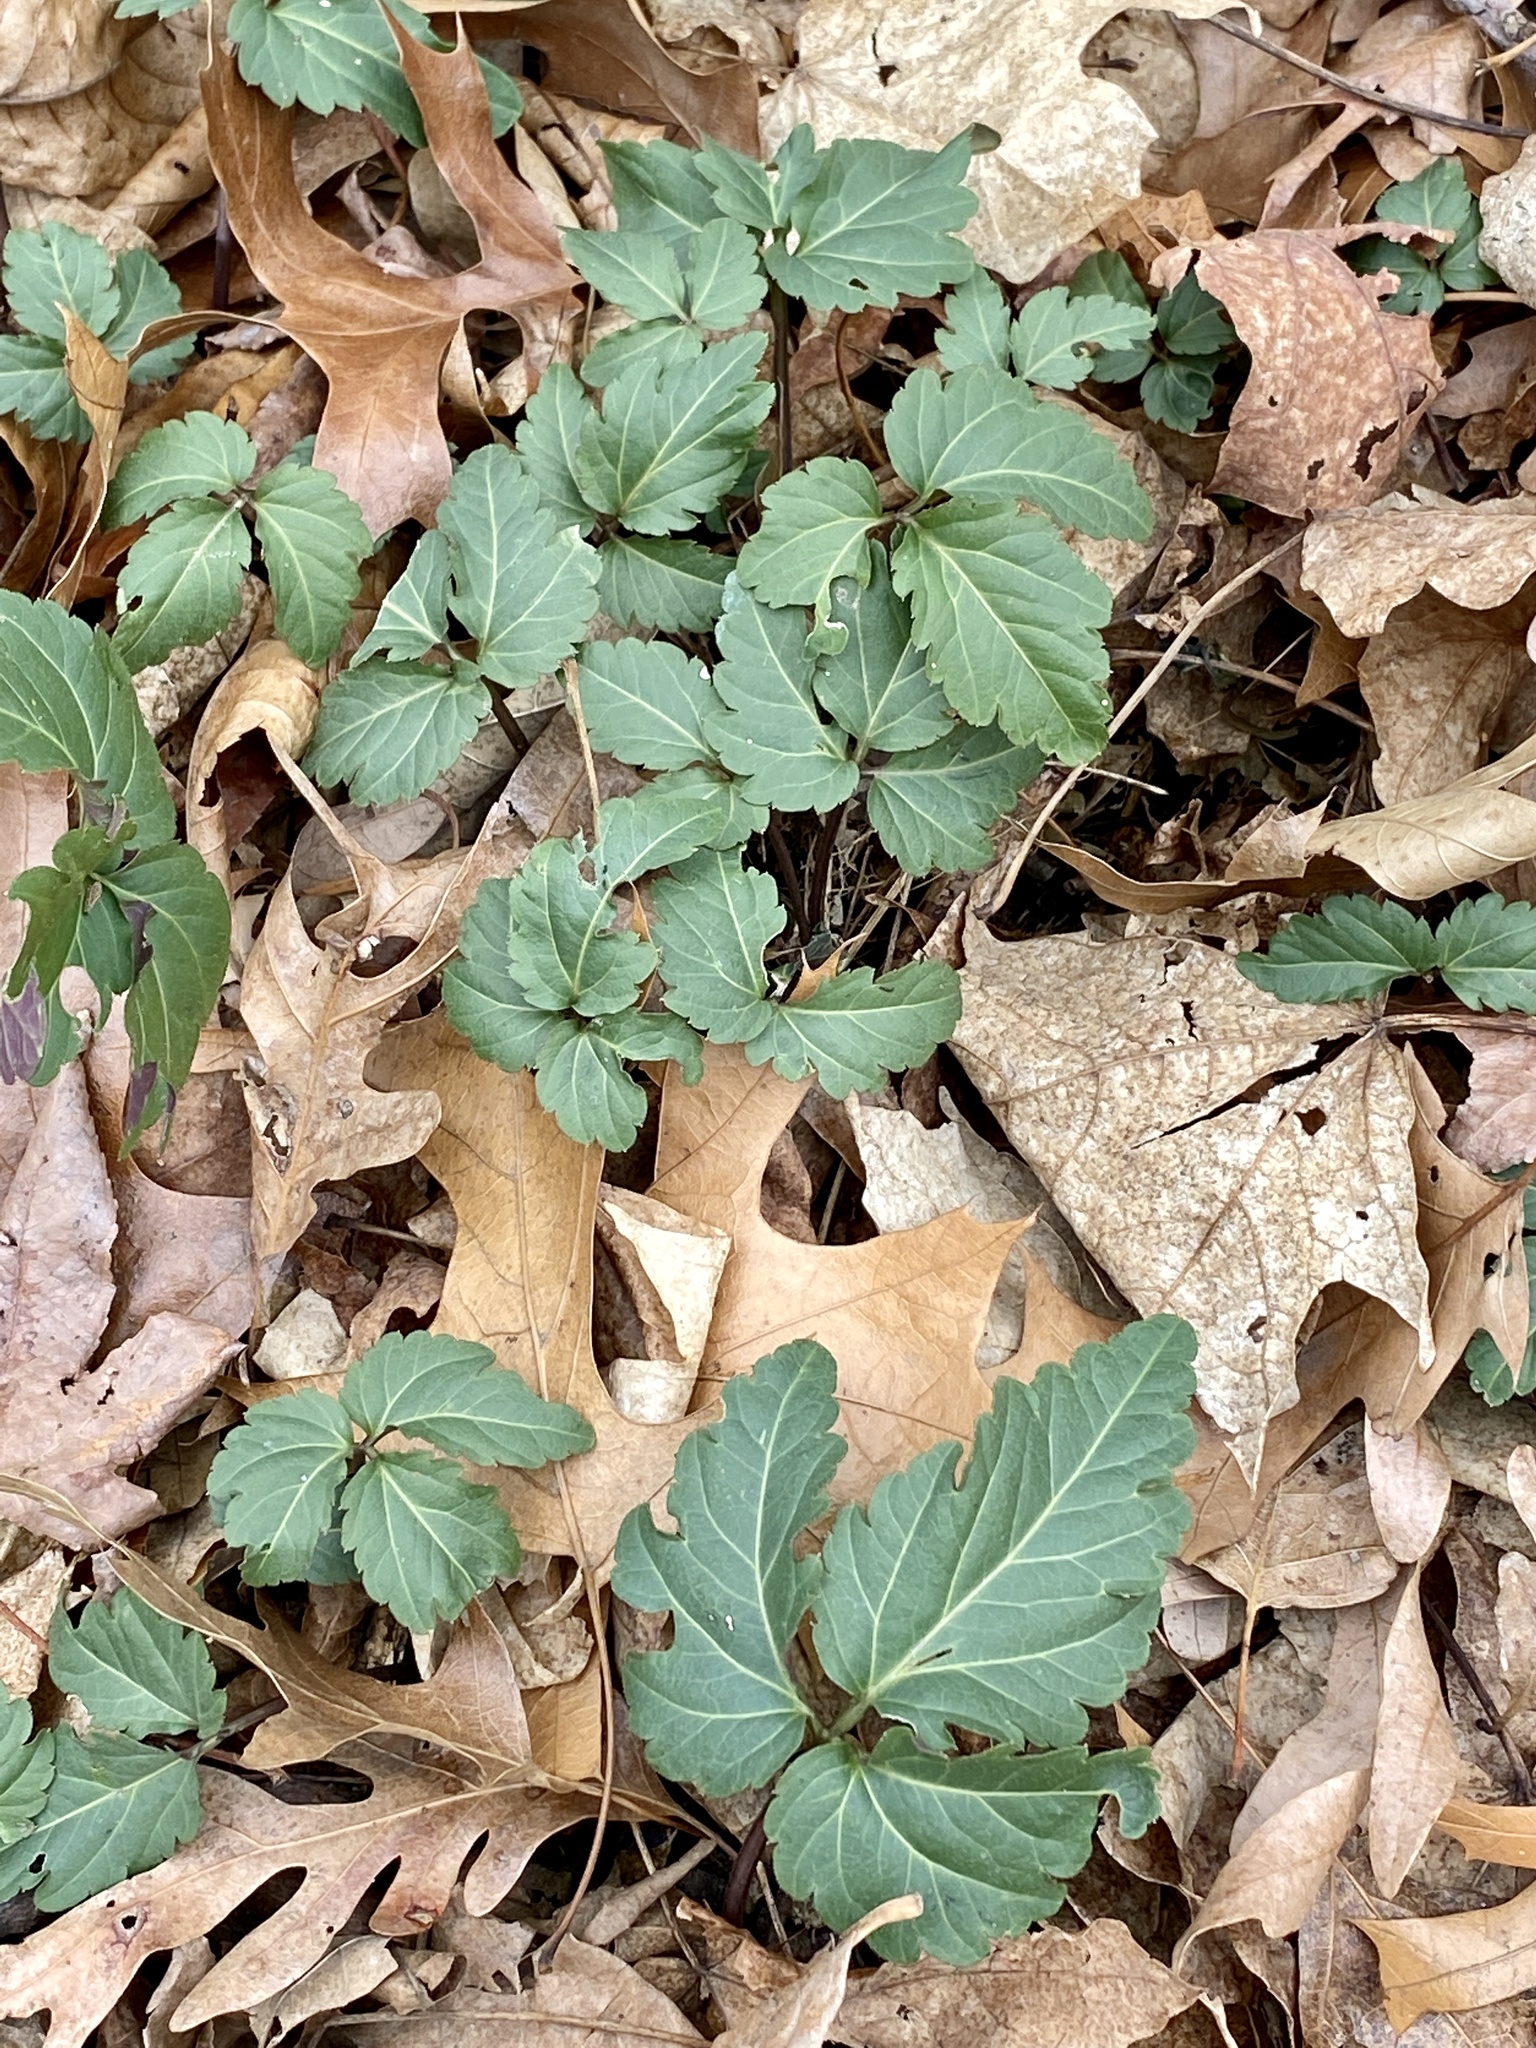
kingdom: Plantae
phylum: Tracheophyta
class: Magnoliopsida
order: Brassicales
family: Brassicaceae
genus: Cardamine
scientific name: Cardamine diphylla
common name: Broad-leaved toothwort
